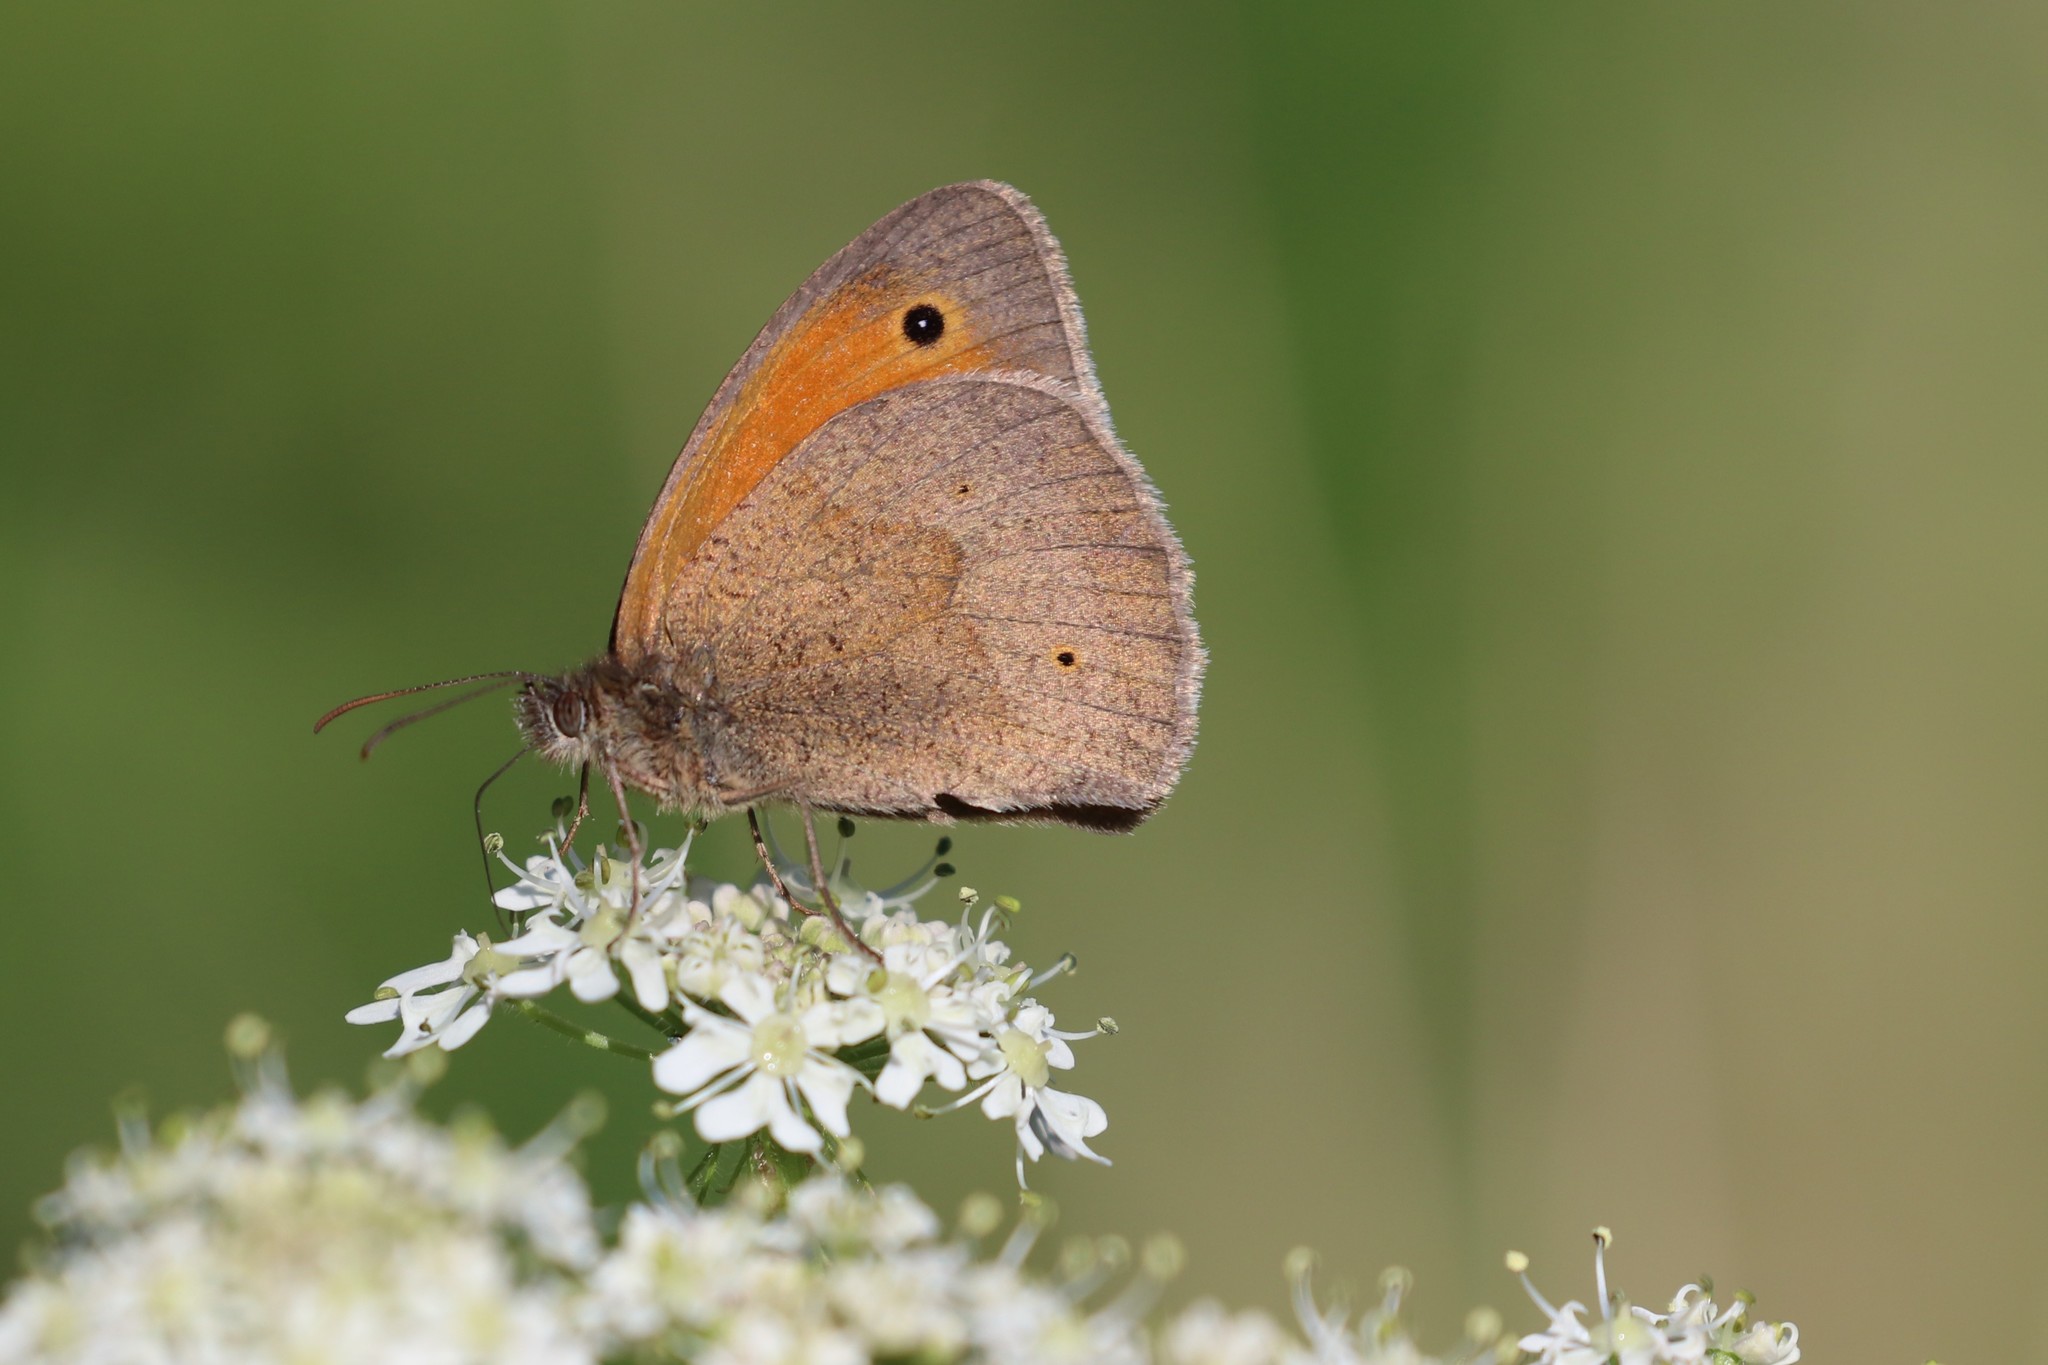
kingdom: Animalia
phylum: Arthropoda
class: Insecta
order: Lepidoptera
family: Nymphalidae
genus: Maniola
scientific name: Maniola jurtina
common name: Meadow brown
